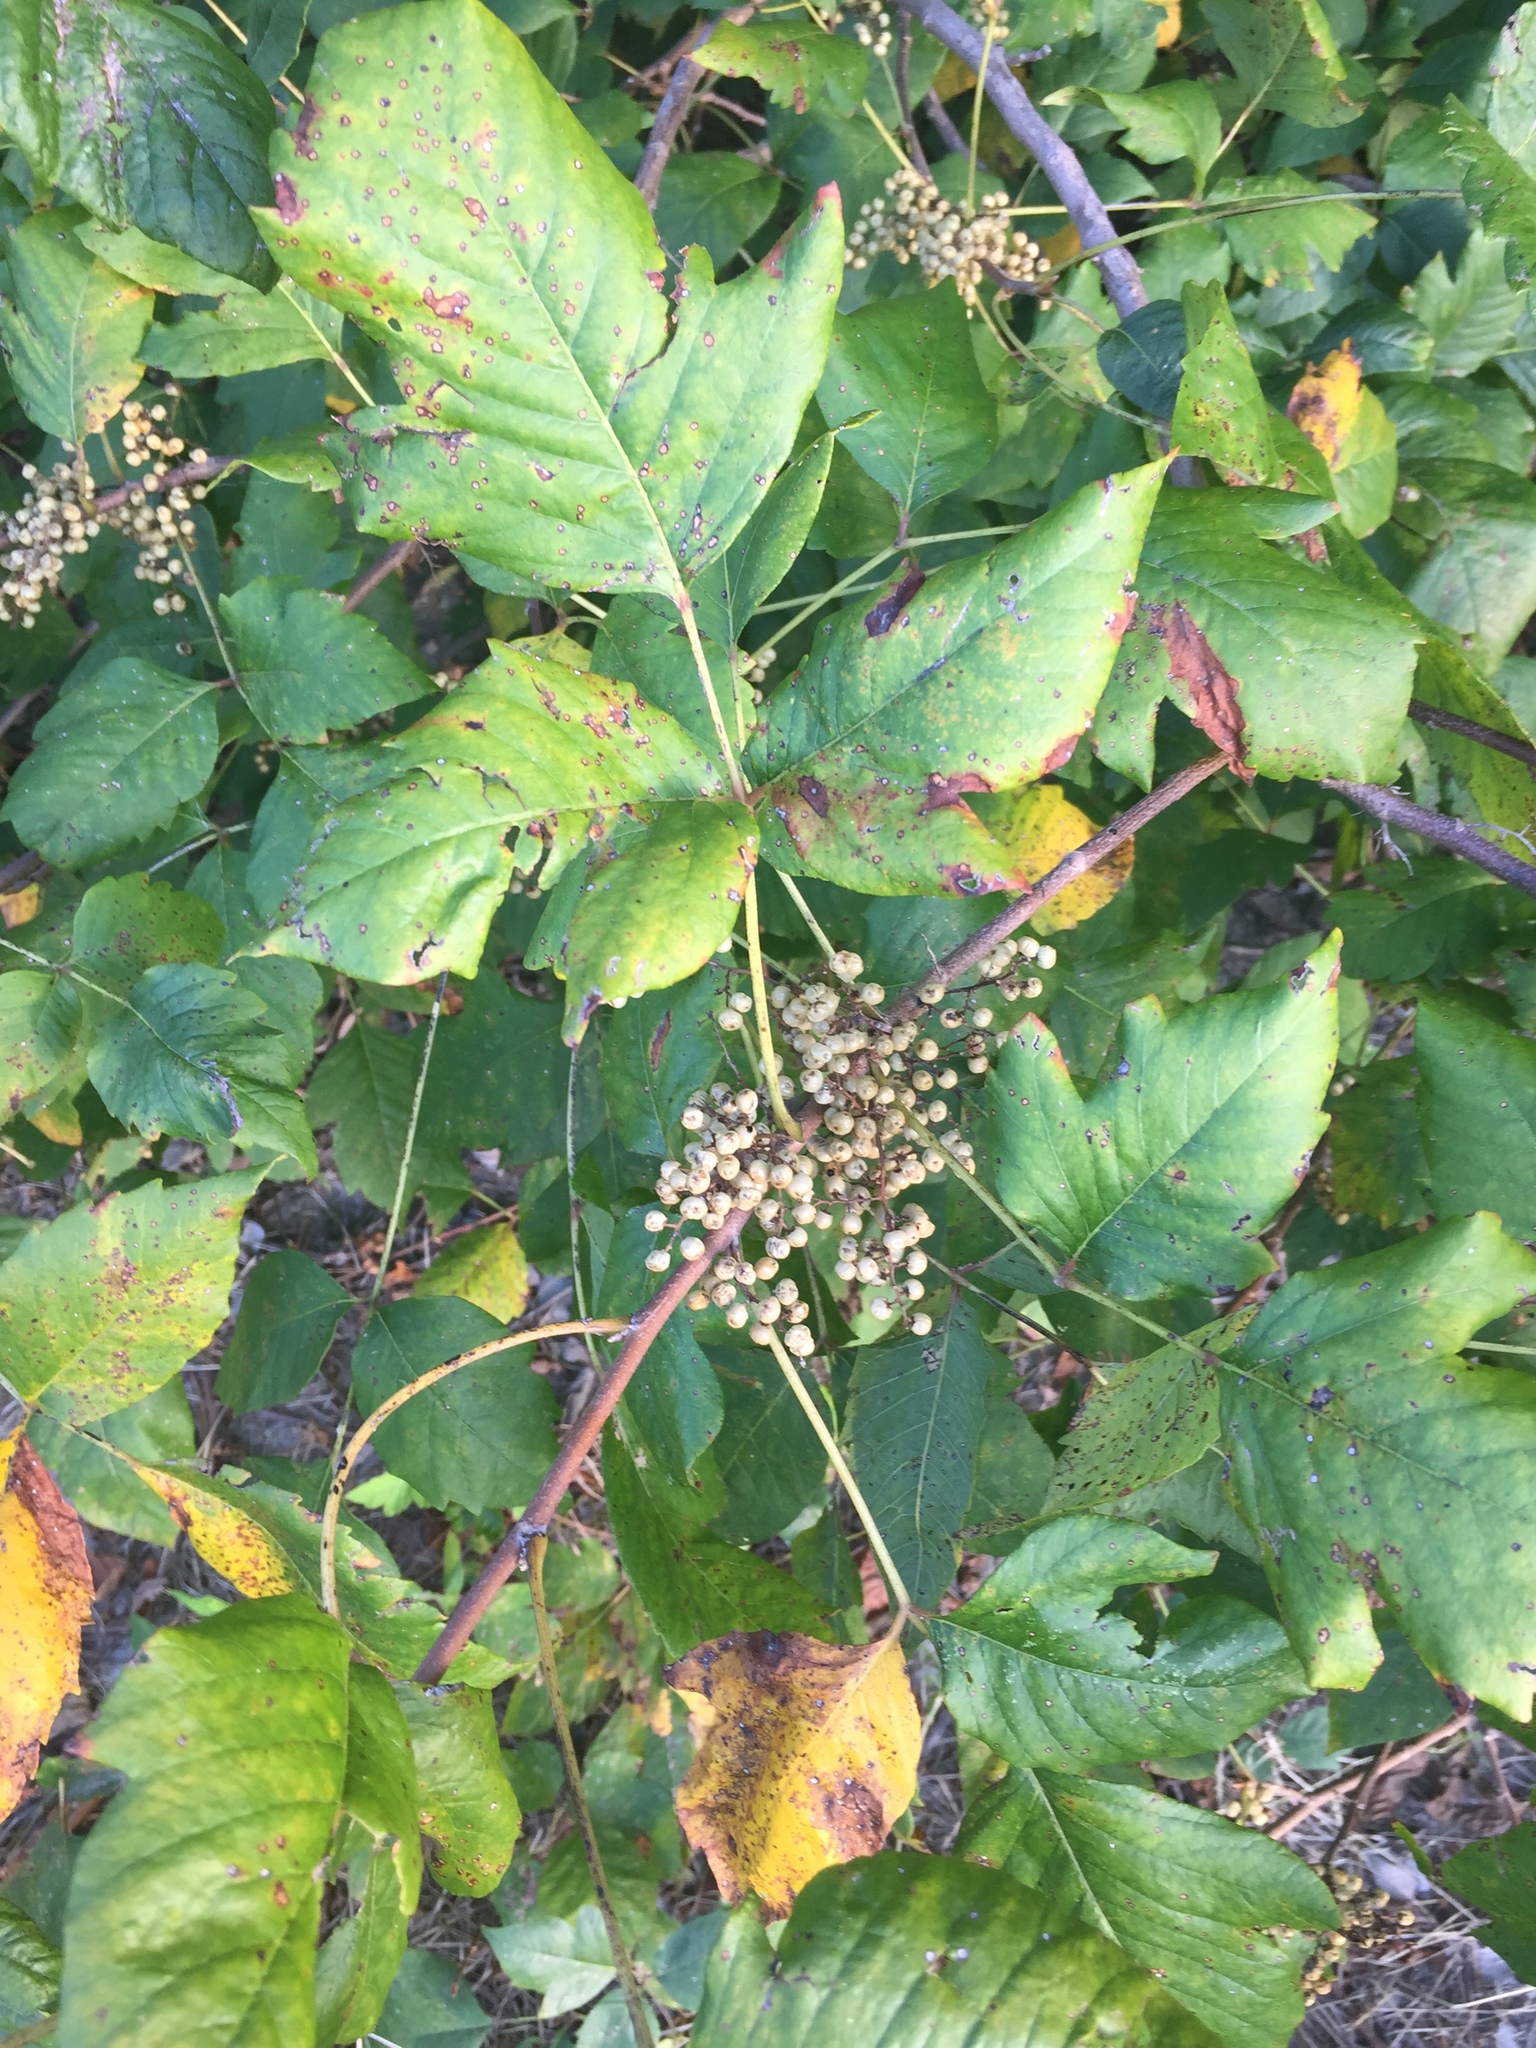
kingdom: Plantae
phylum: Tracheophyta
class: Magnoliopsida
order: Sapindales
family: Anacardiaceae
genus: Toxicodendron
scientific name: Toxicodendron radicans
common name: Poison ivy
